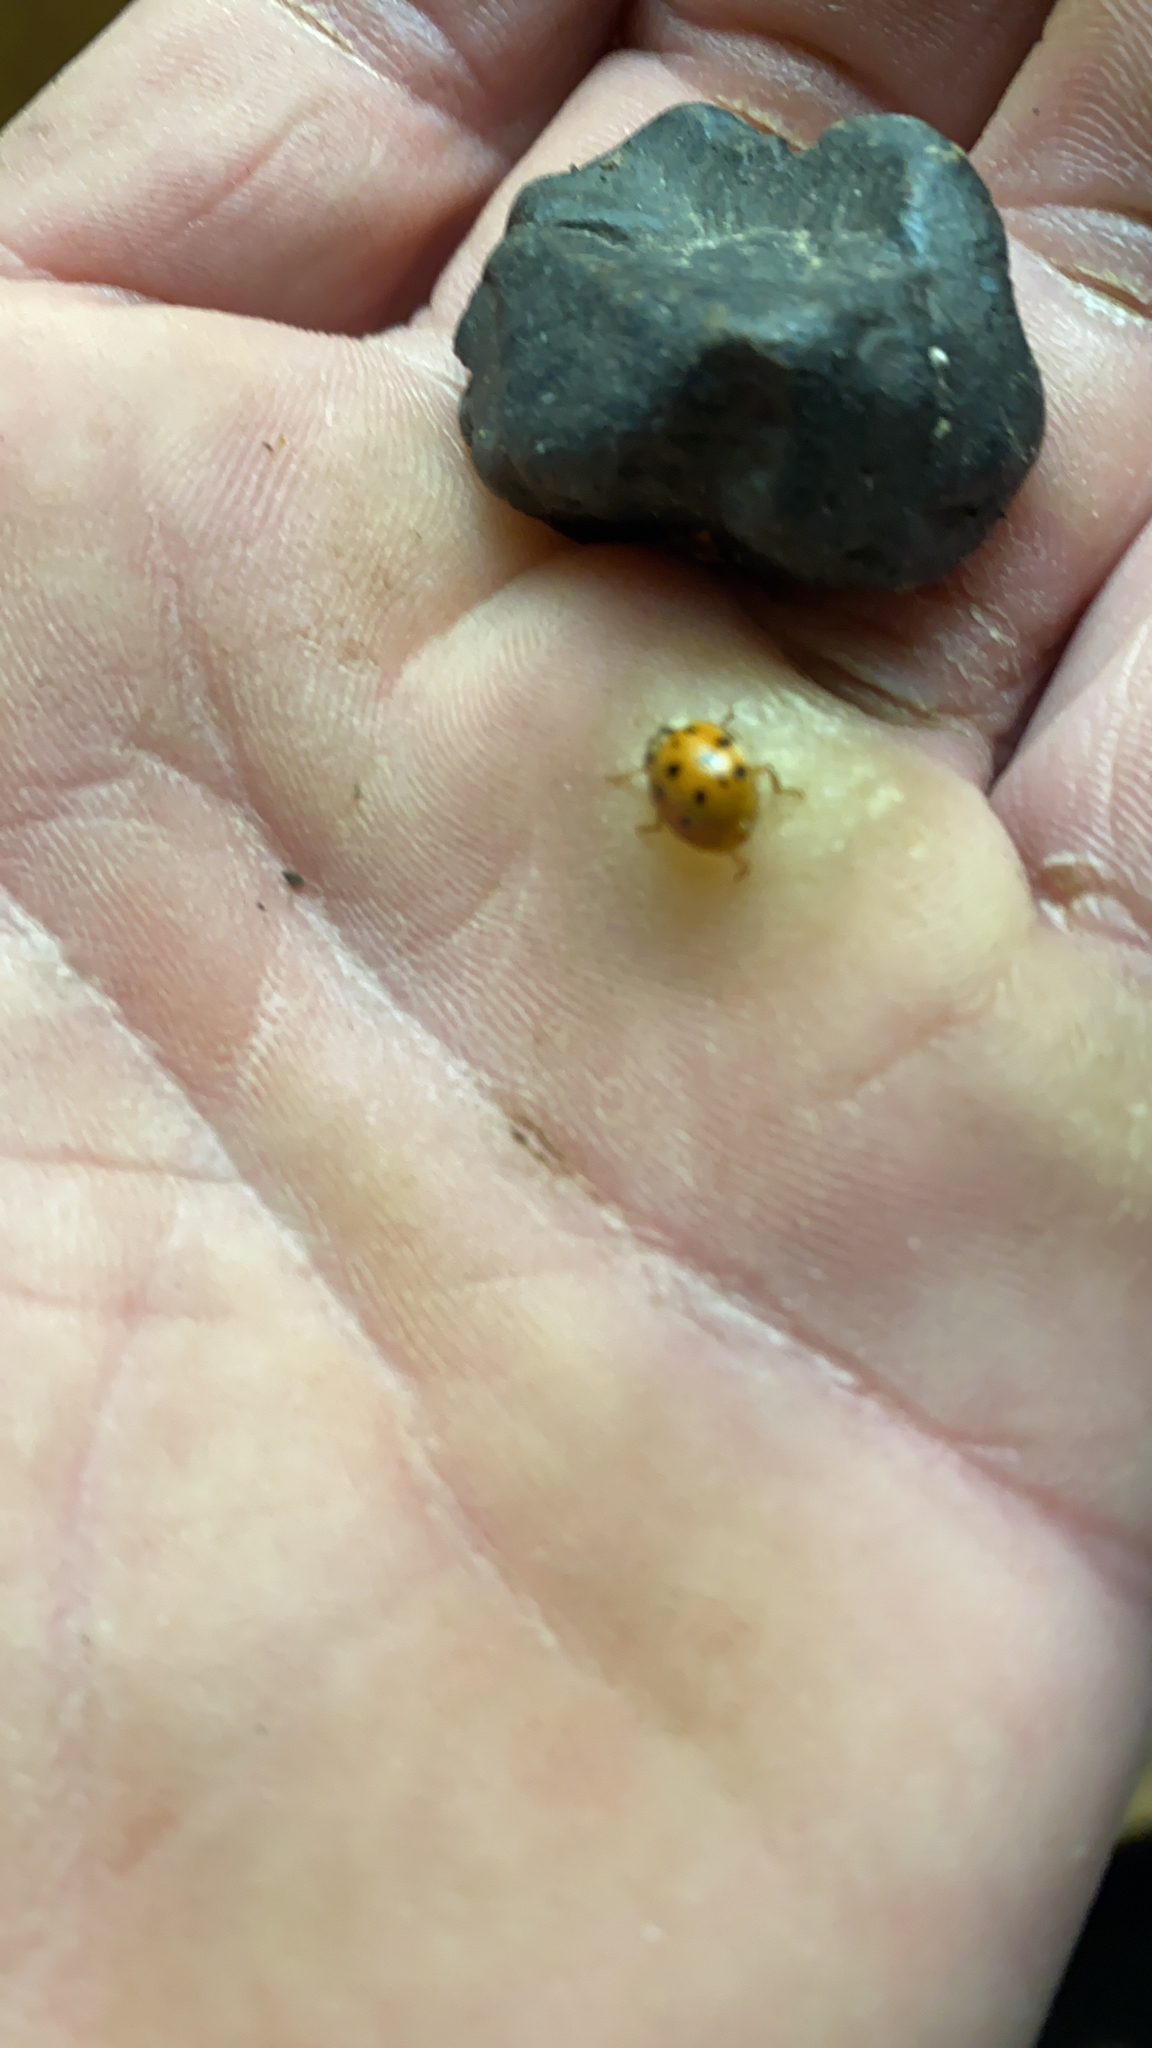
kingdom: Animalia
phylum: Arthropoda
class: Insecta
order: Coleoptera
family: Coccinellidae
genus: Harmonia
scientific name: Harmonia axyridis
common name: Harlequin ladybird
